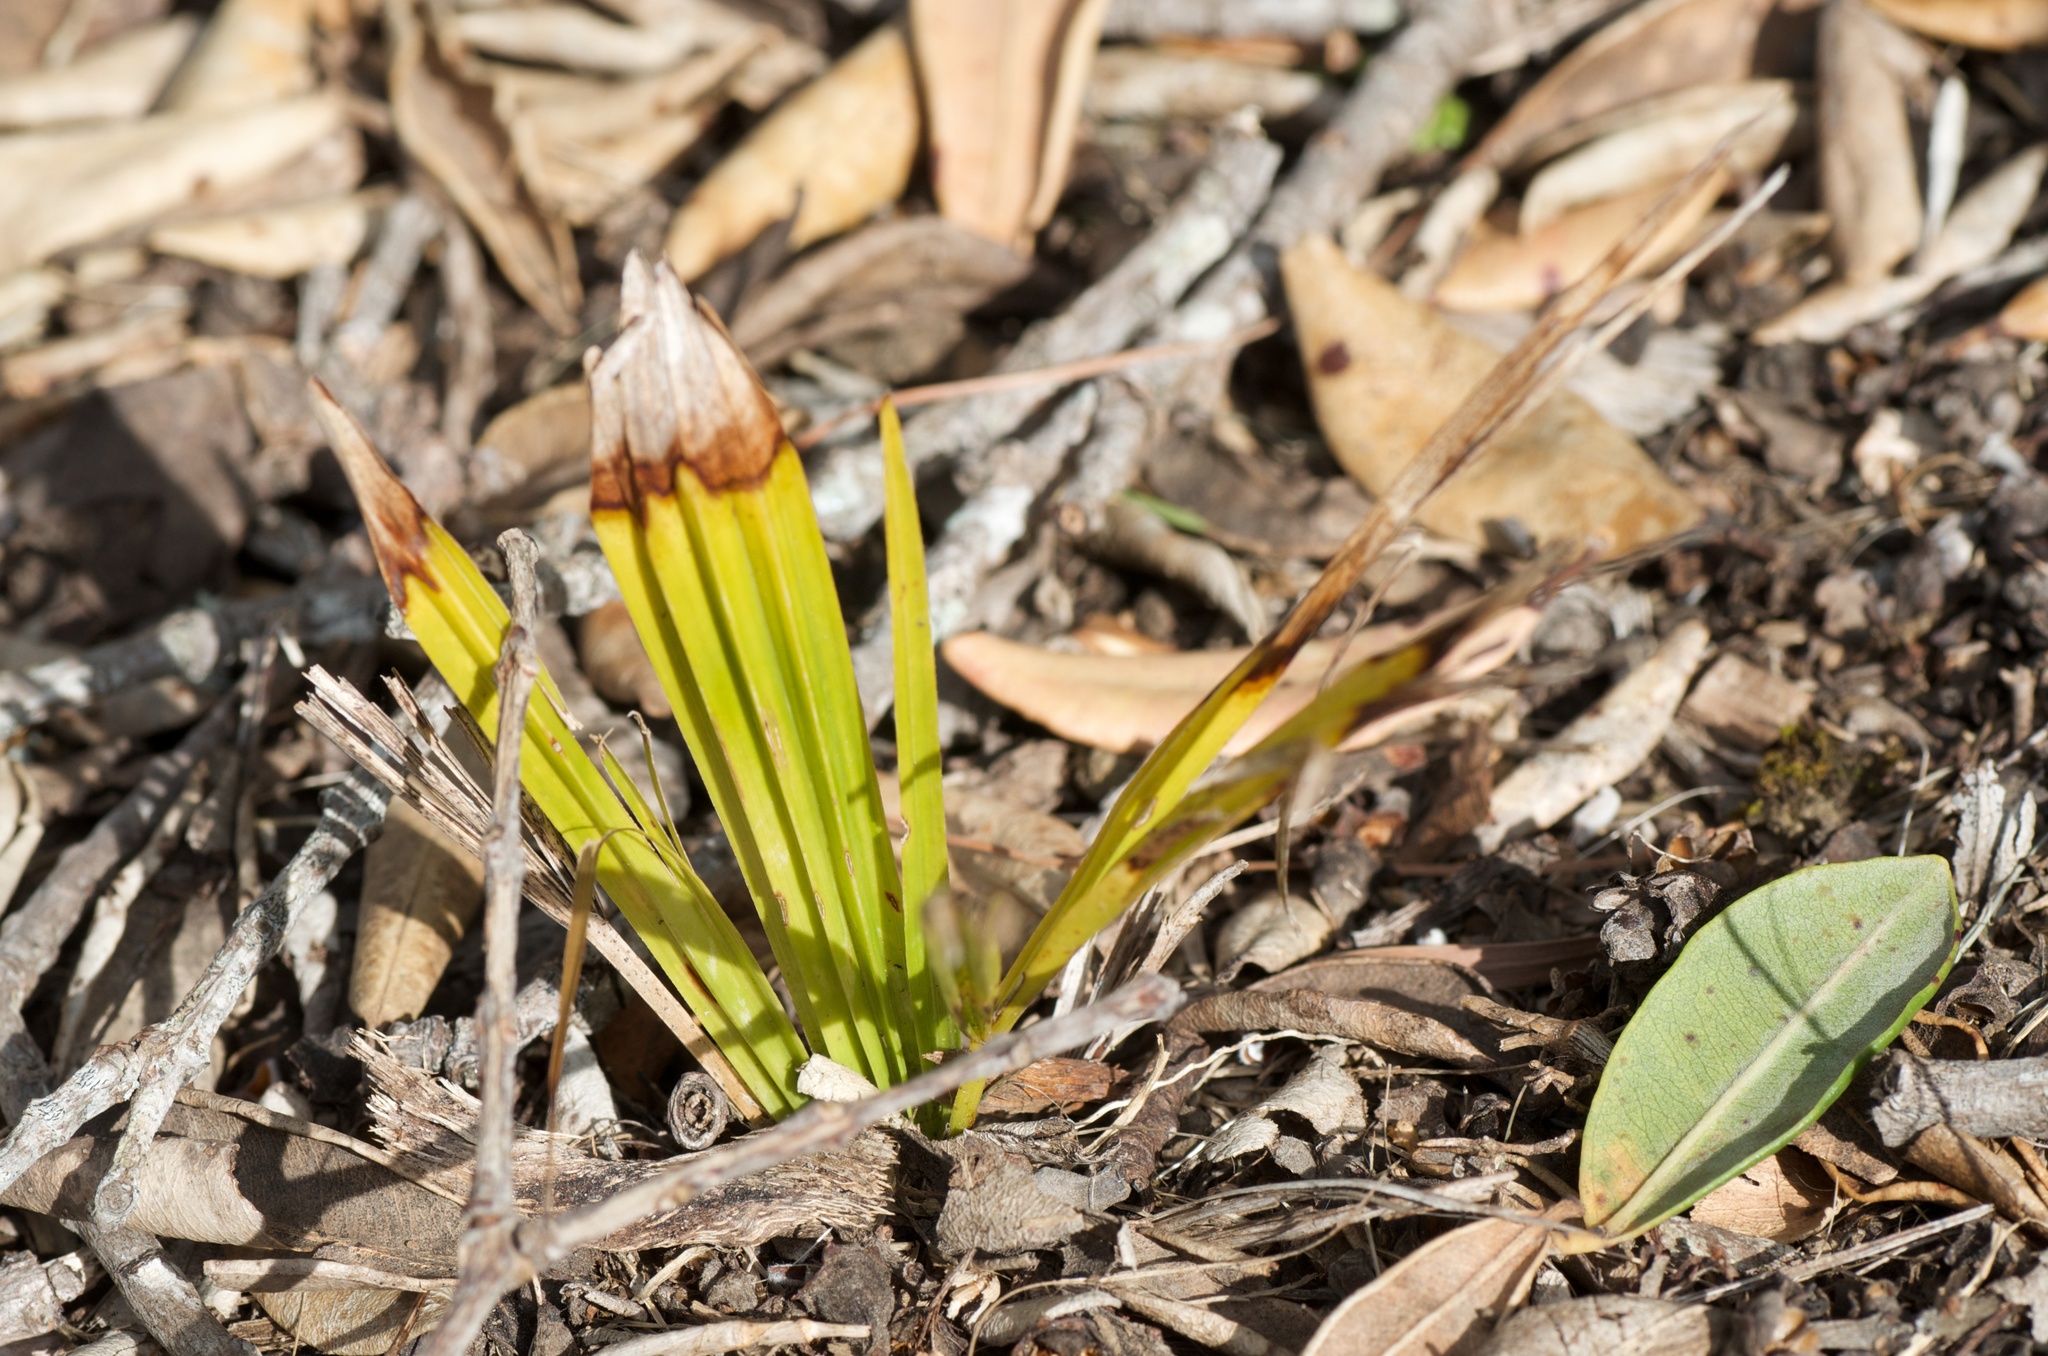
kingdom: Plantae
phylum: Tracheophyta
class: Liliopsida
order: Arecales
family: Arecaceae
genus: Trachycarpus
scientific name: Trachycarpus fortunei
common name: Chusan palm
